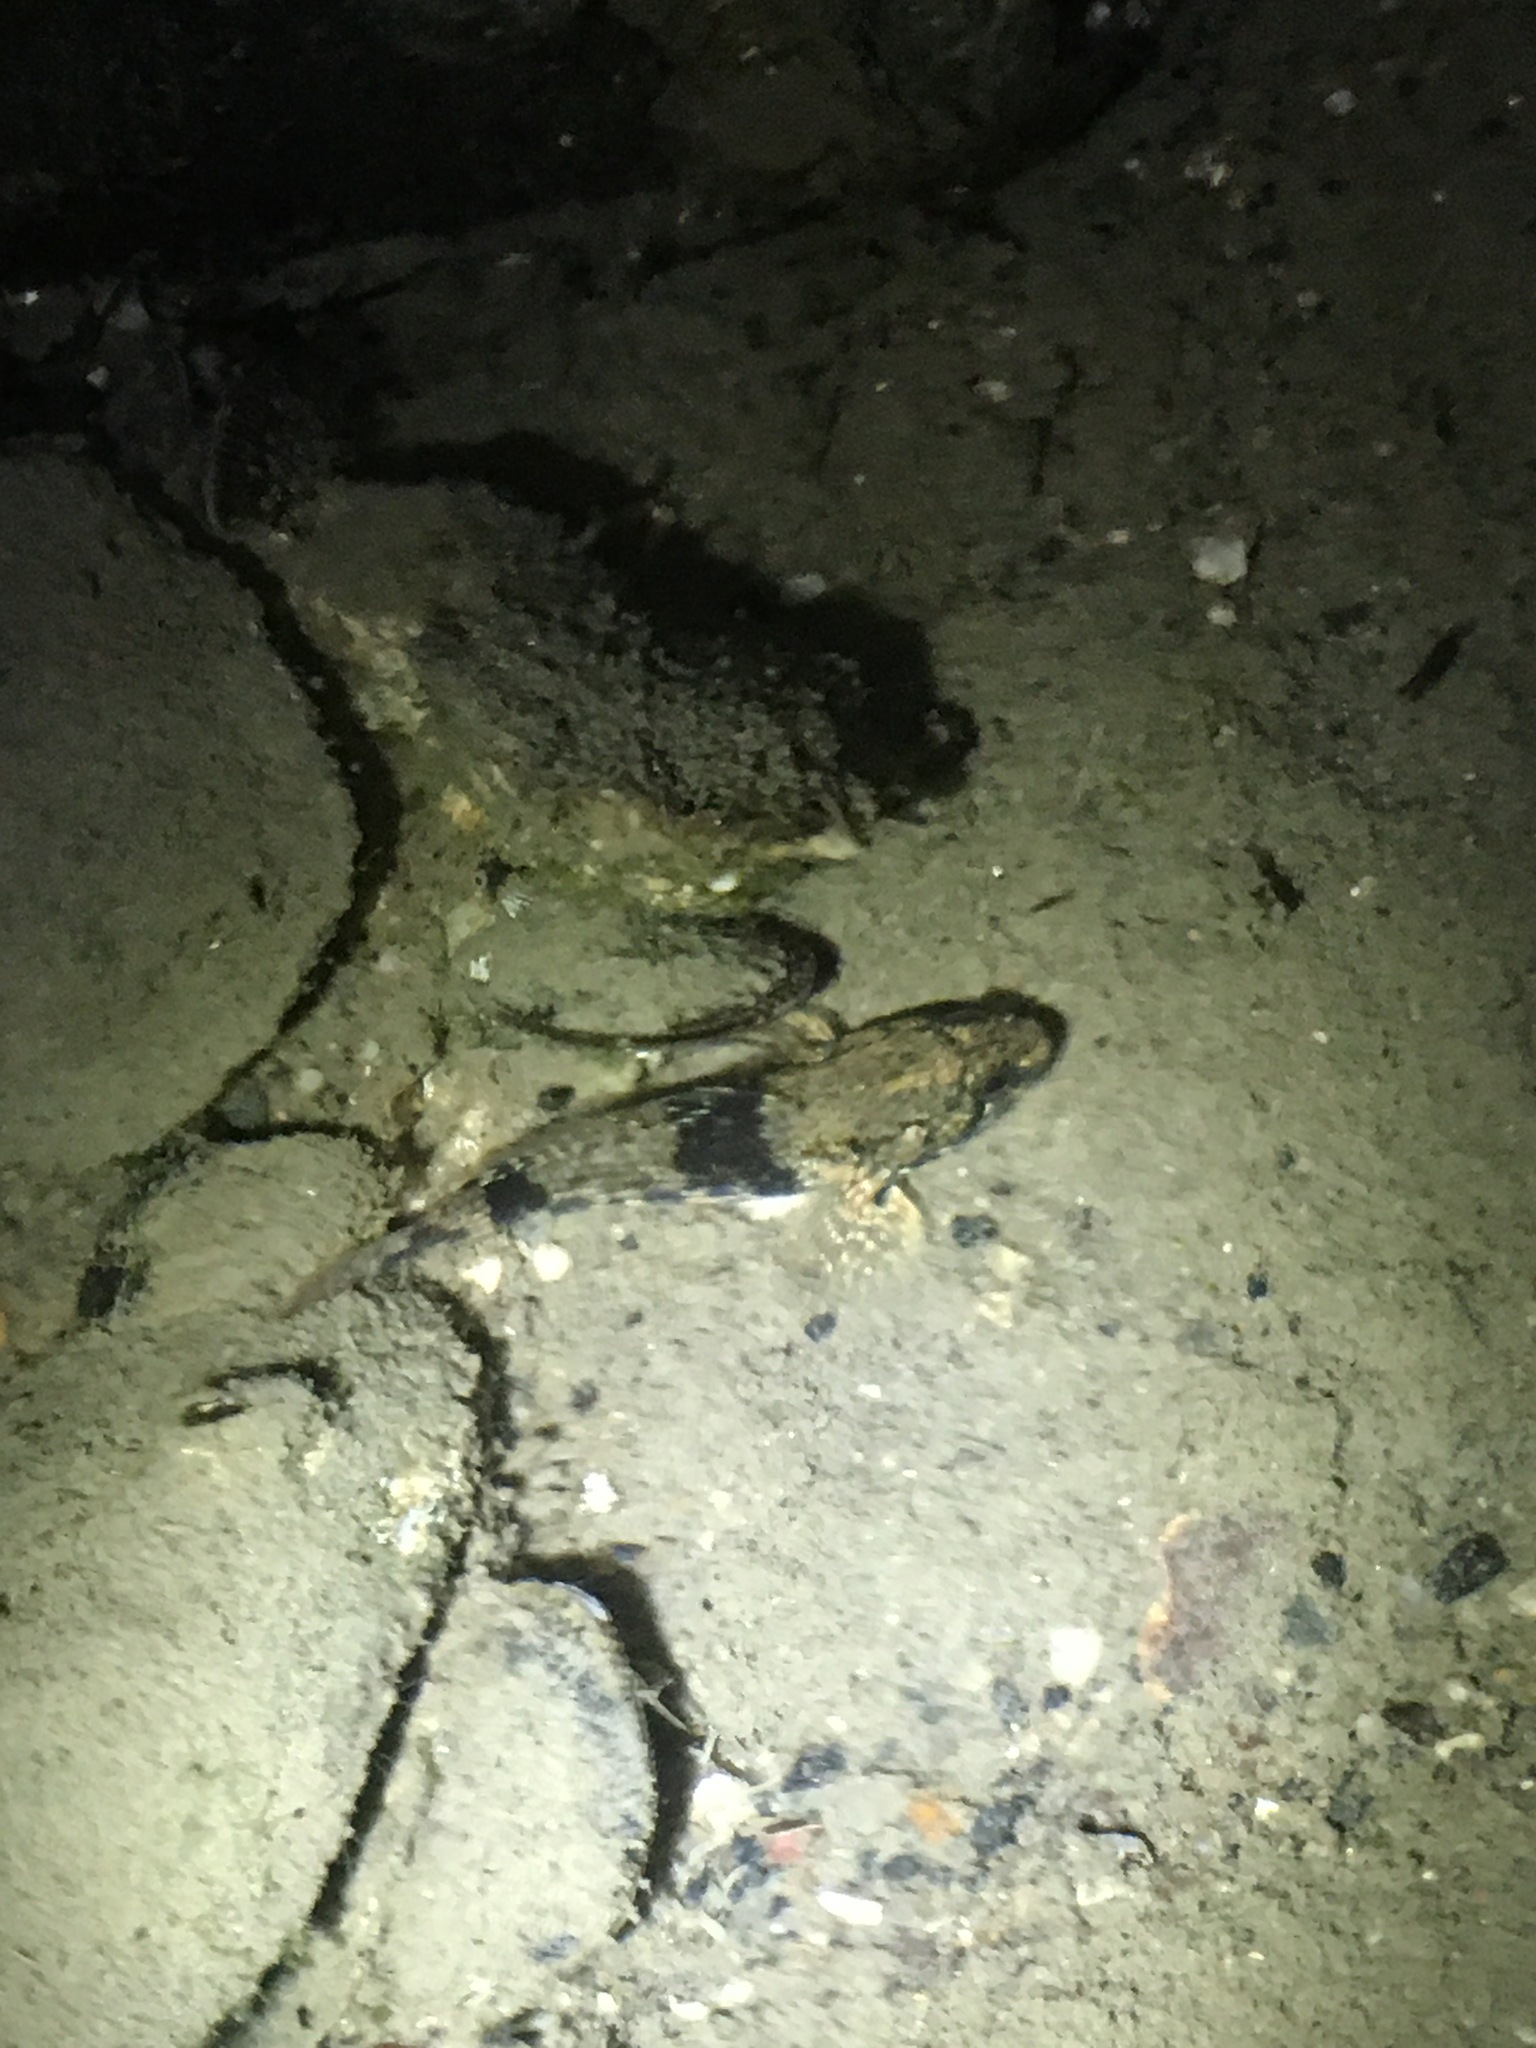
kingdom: Animalia
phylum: Chordata
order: Perciformes
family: Gobiidae
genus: Bathygobius
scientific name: Bathygobius soporator
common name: Frillfin goby
